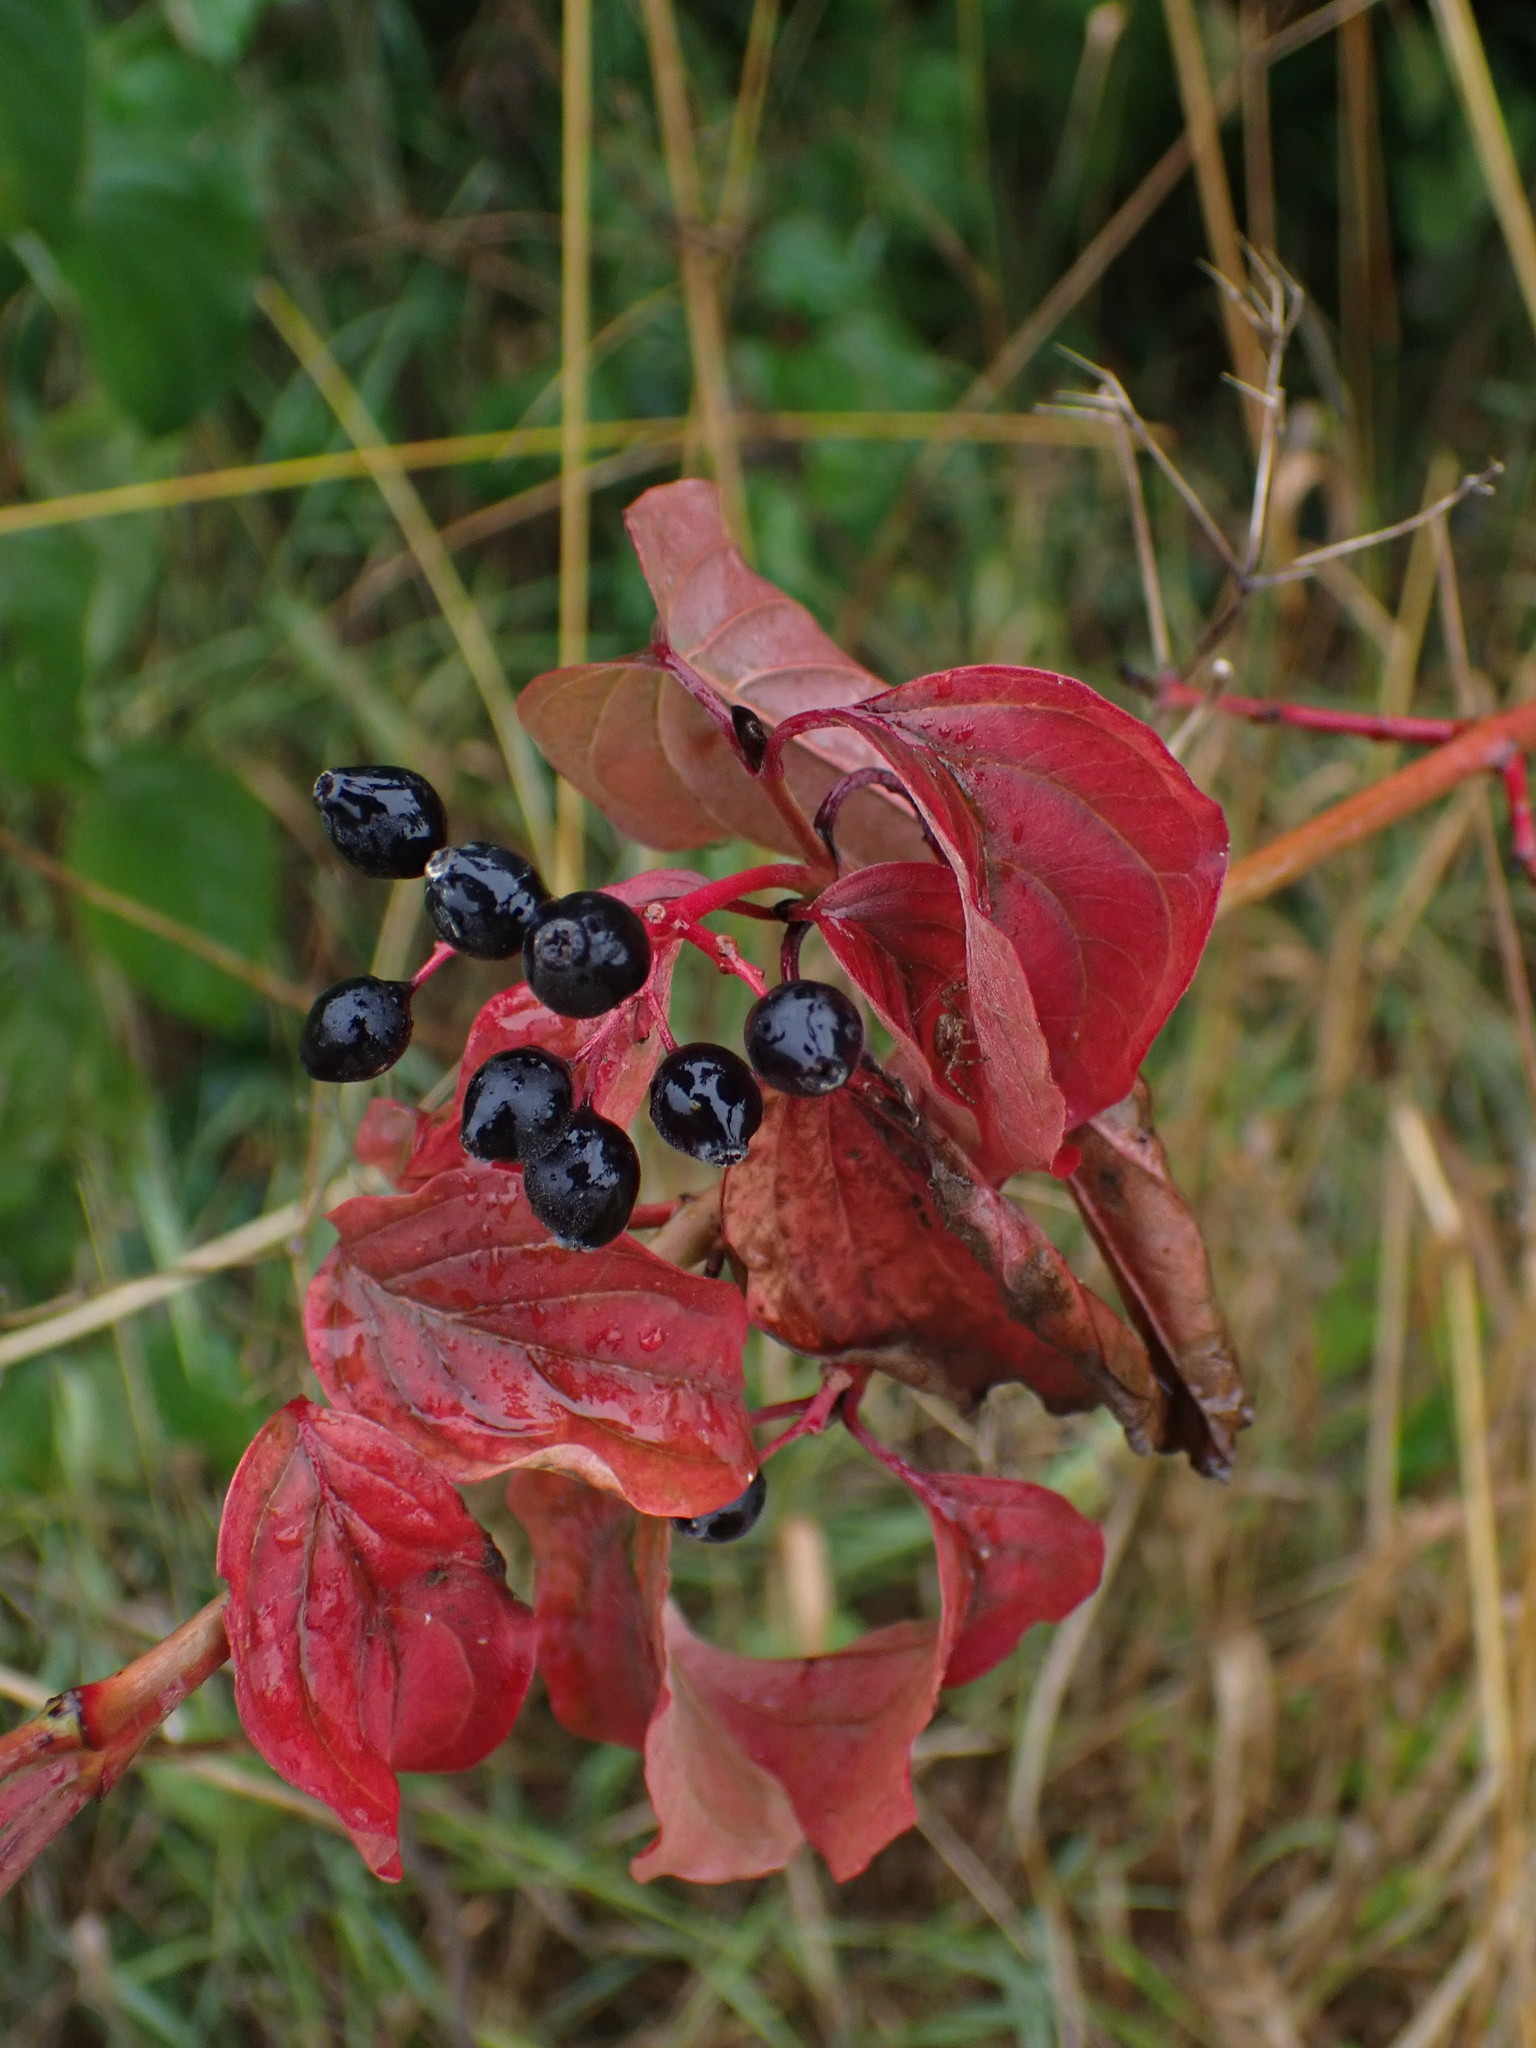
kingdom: Plantae
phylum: Tracheophyta
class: Magnoliopsida
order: Cornales
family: Cornaceae
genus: Cornus
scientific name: Cornus sanguinea
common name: Dogwood
